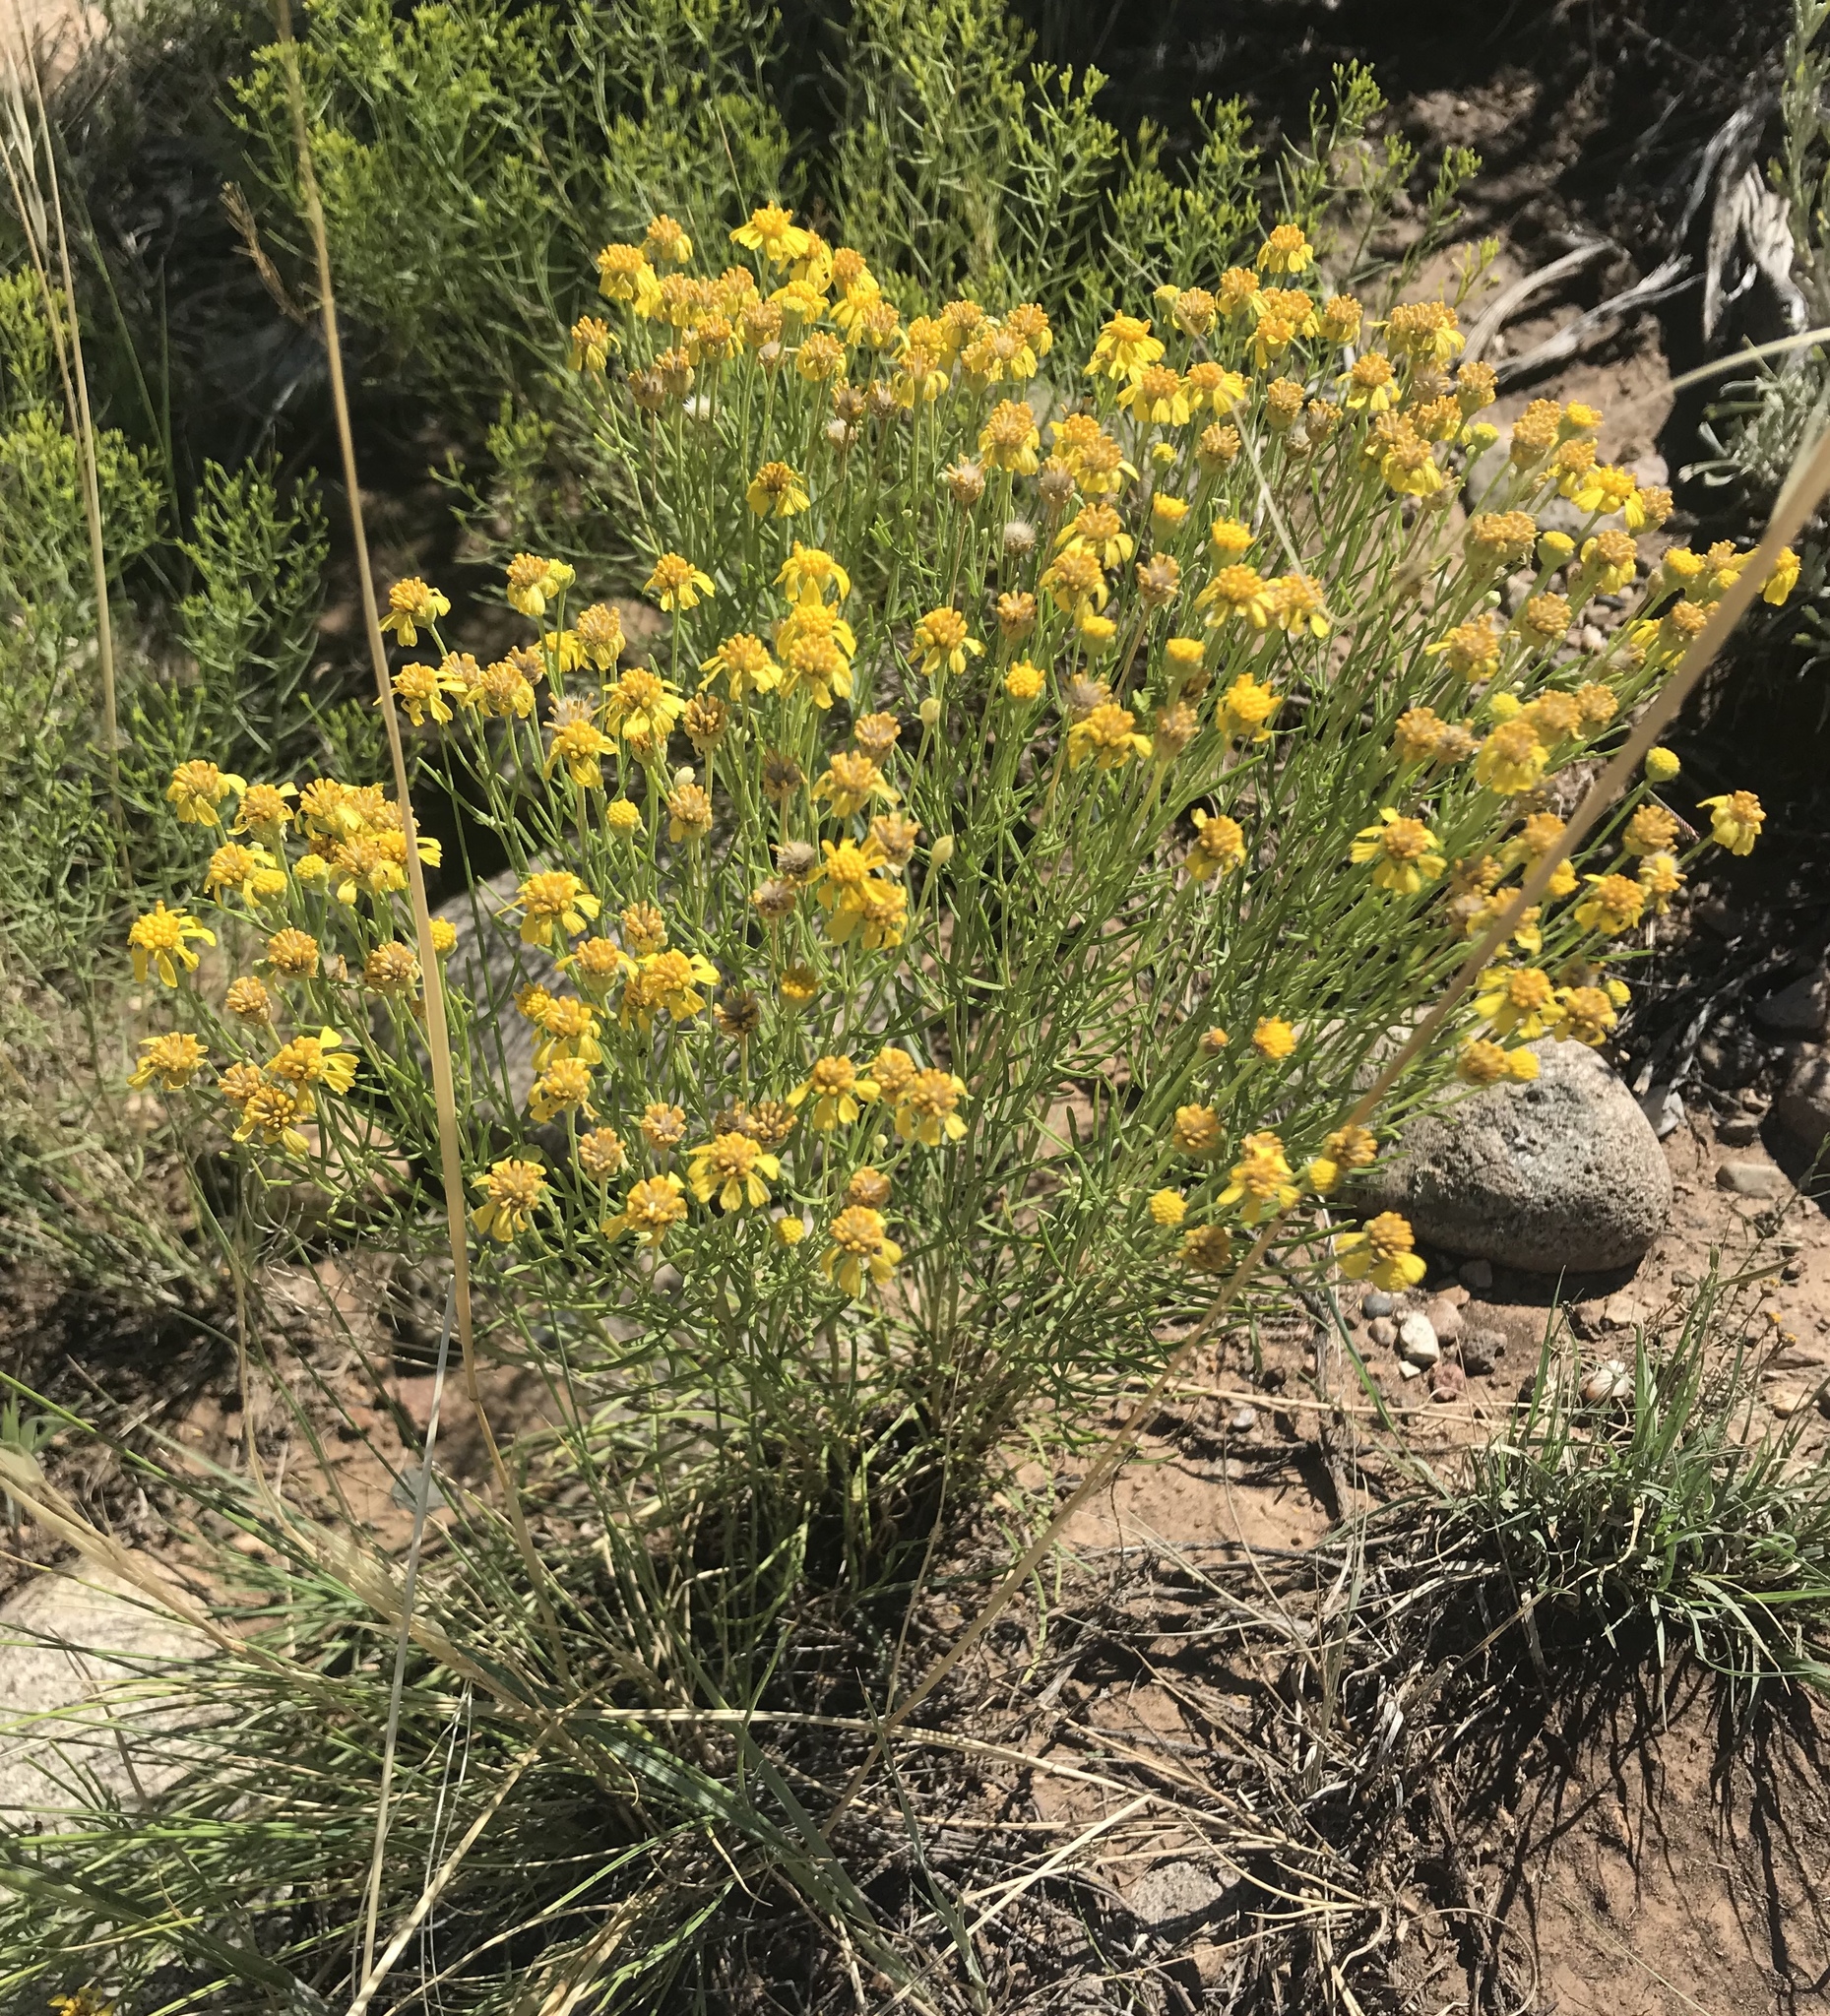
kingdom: Plantae
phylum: Tracheophyta
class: Magnoliopsida
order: Asterales
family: Asteraceae
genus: Hymenoxys
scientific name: Hymenoxys richardsonii
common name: Pingue rubberweed
